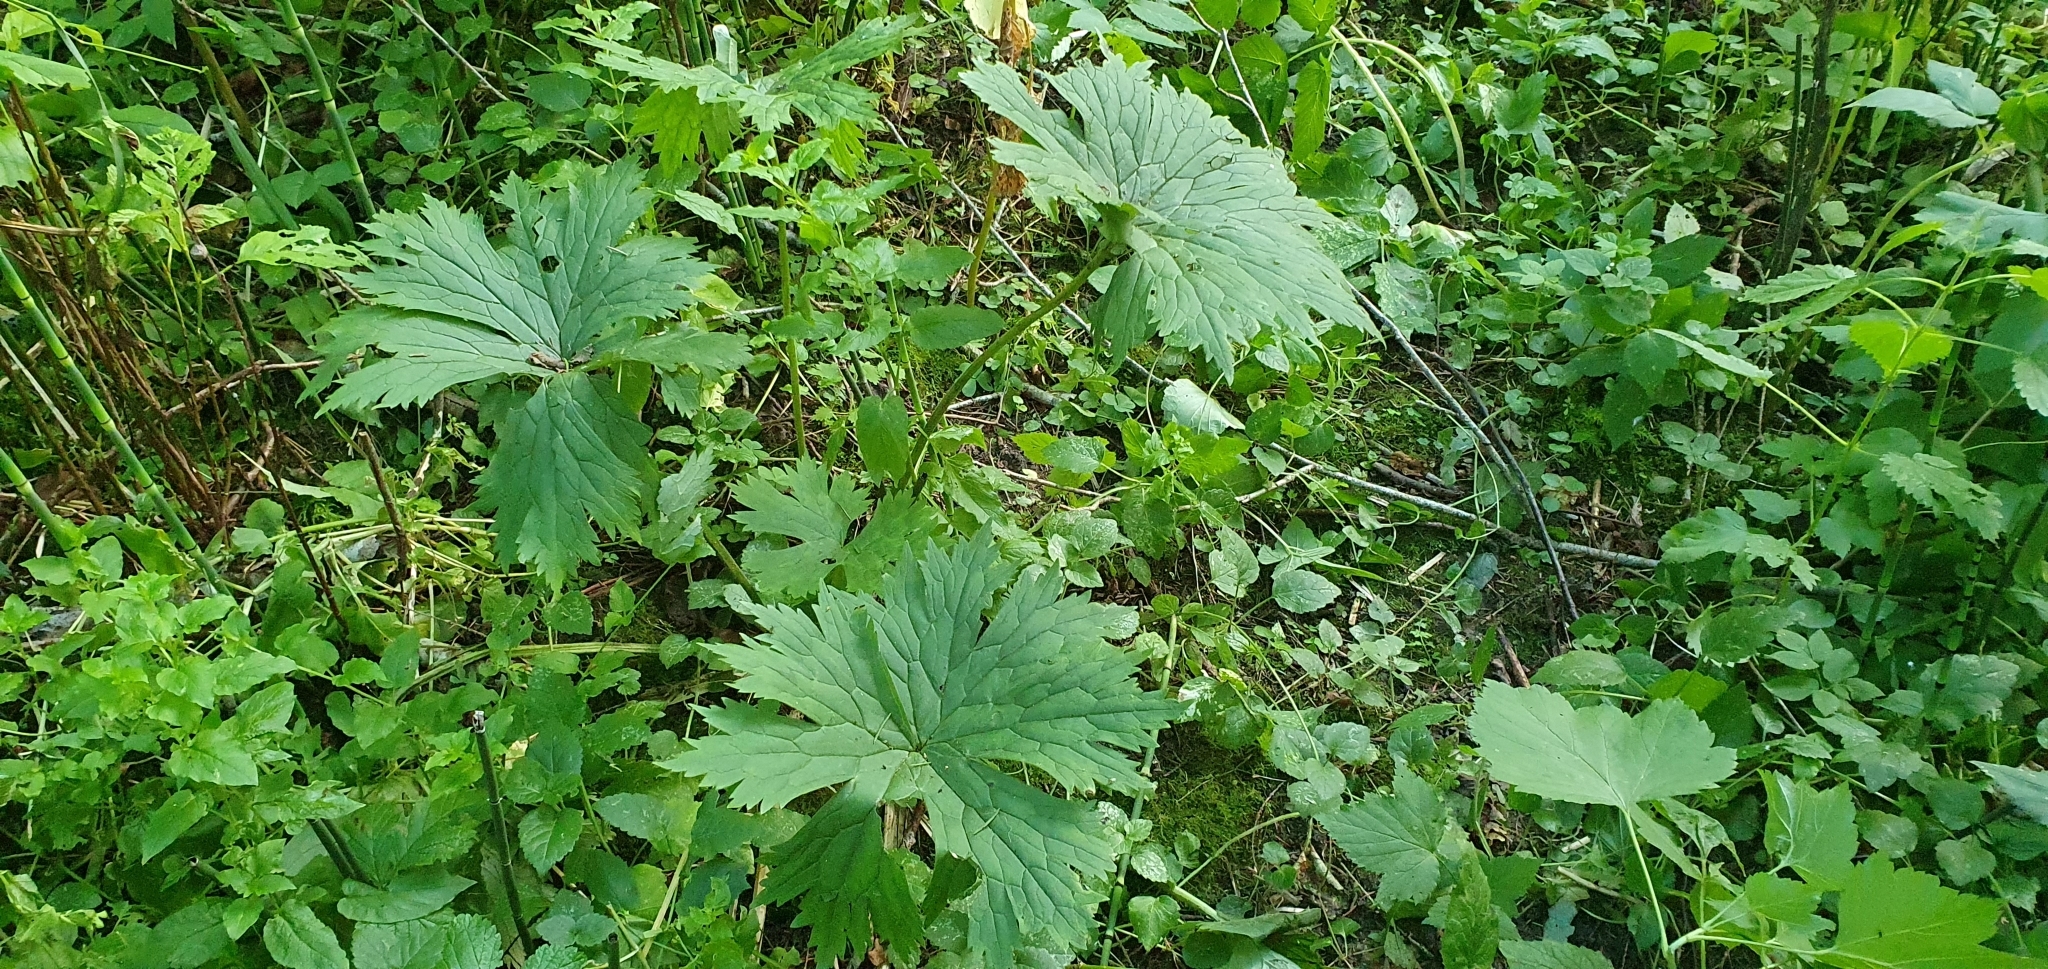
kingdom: Plantae
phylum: Tracheophyta
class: Magnoliopsida
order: Ranunculales
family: Ranunculaceae
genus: Aconitum
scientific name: Aconitum septentrionale
